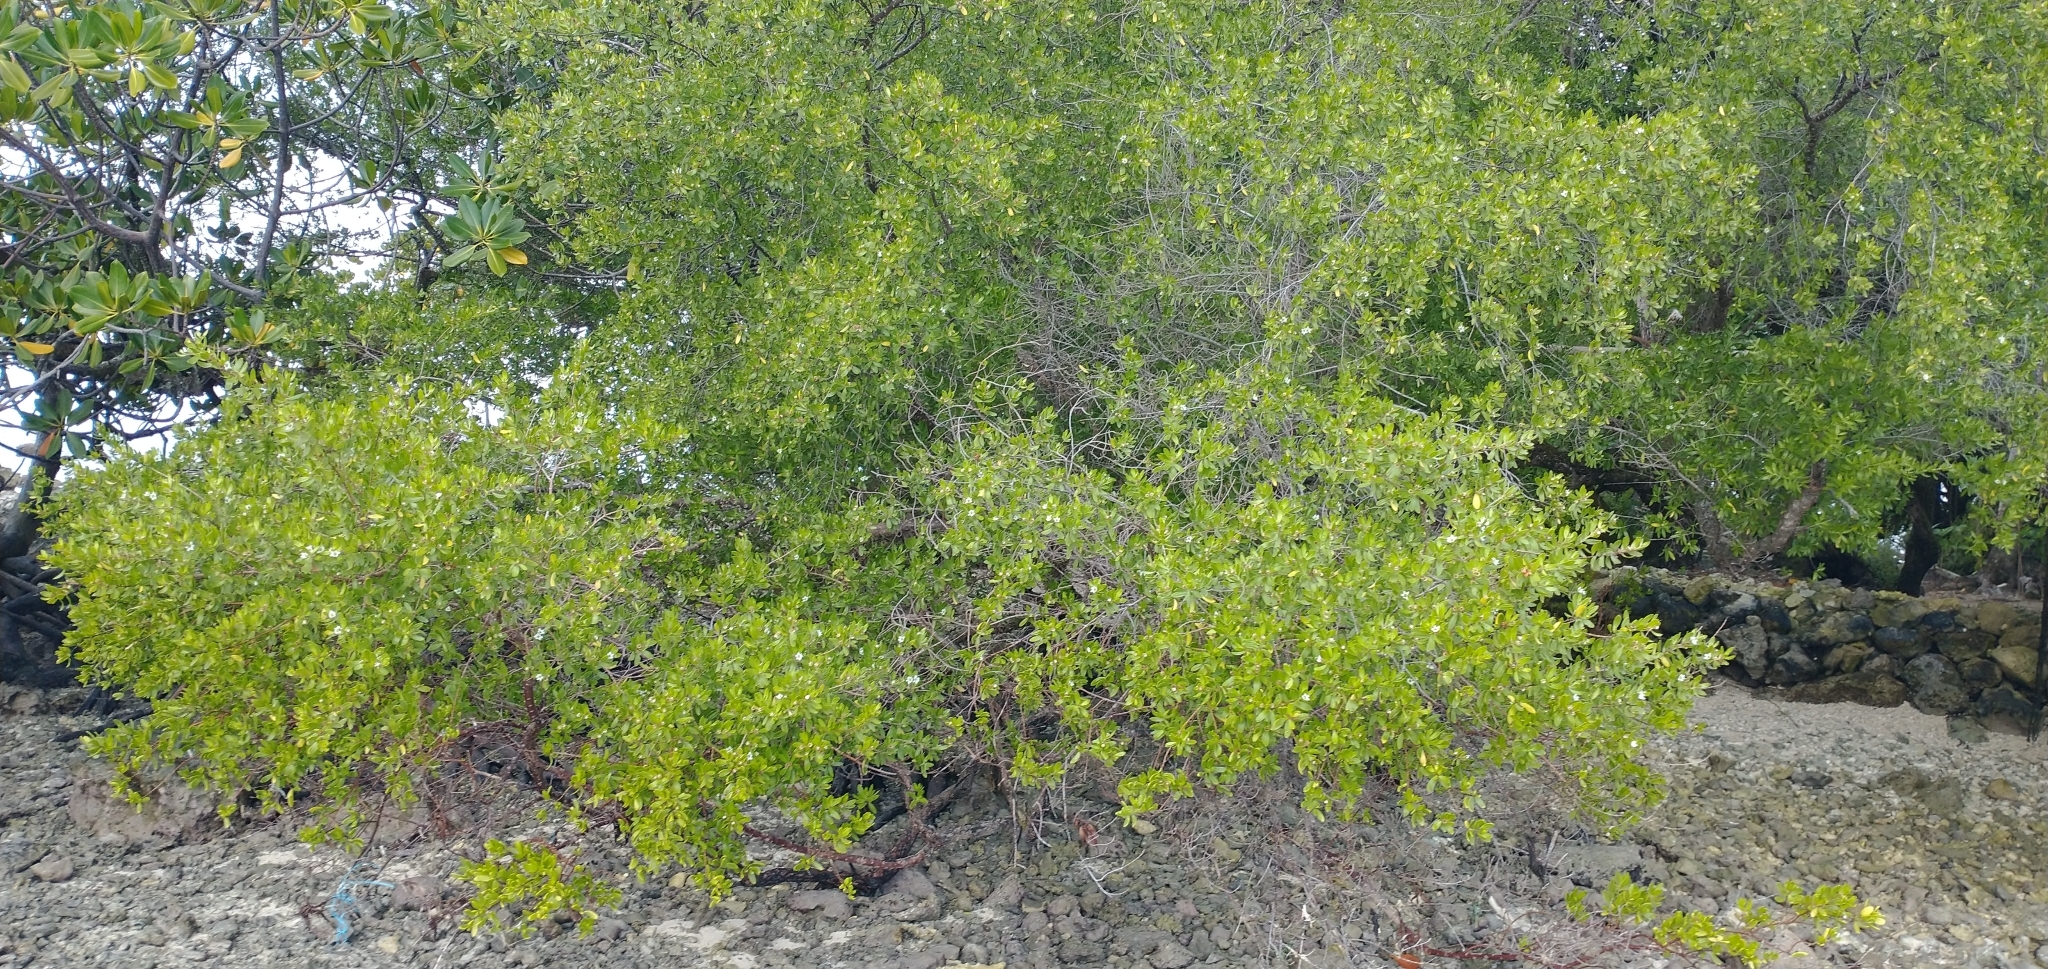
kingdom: Plantae
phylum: Tracheophyta
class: Magnoliopsida
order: Myrtales
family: Lythraceae
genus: Pemphis
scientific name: Pemphis acidula
